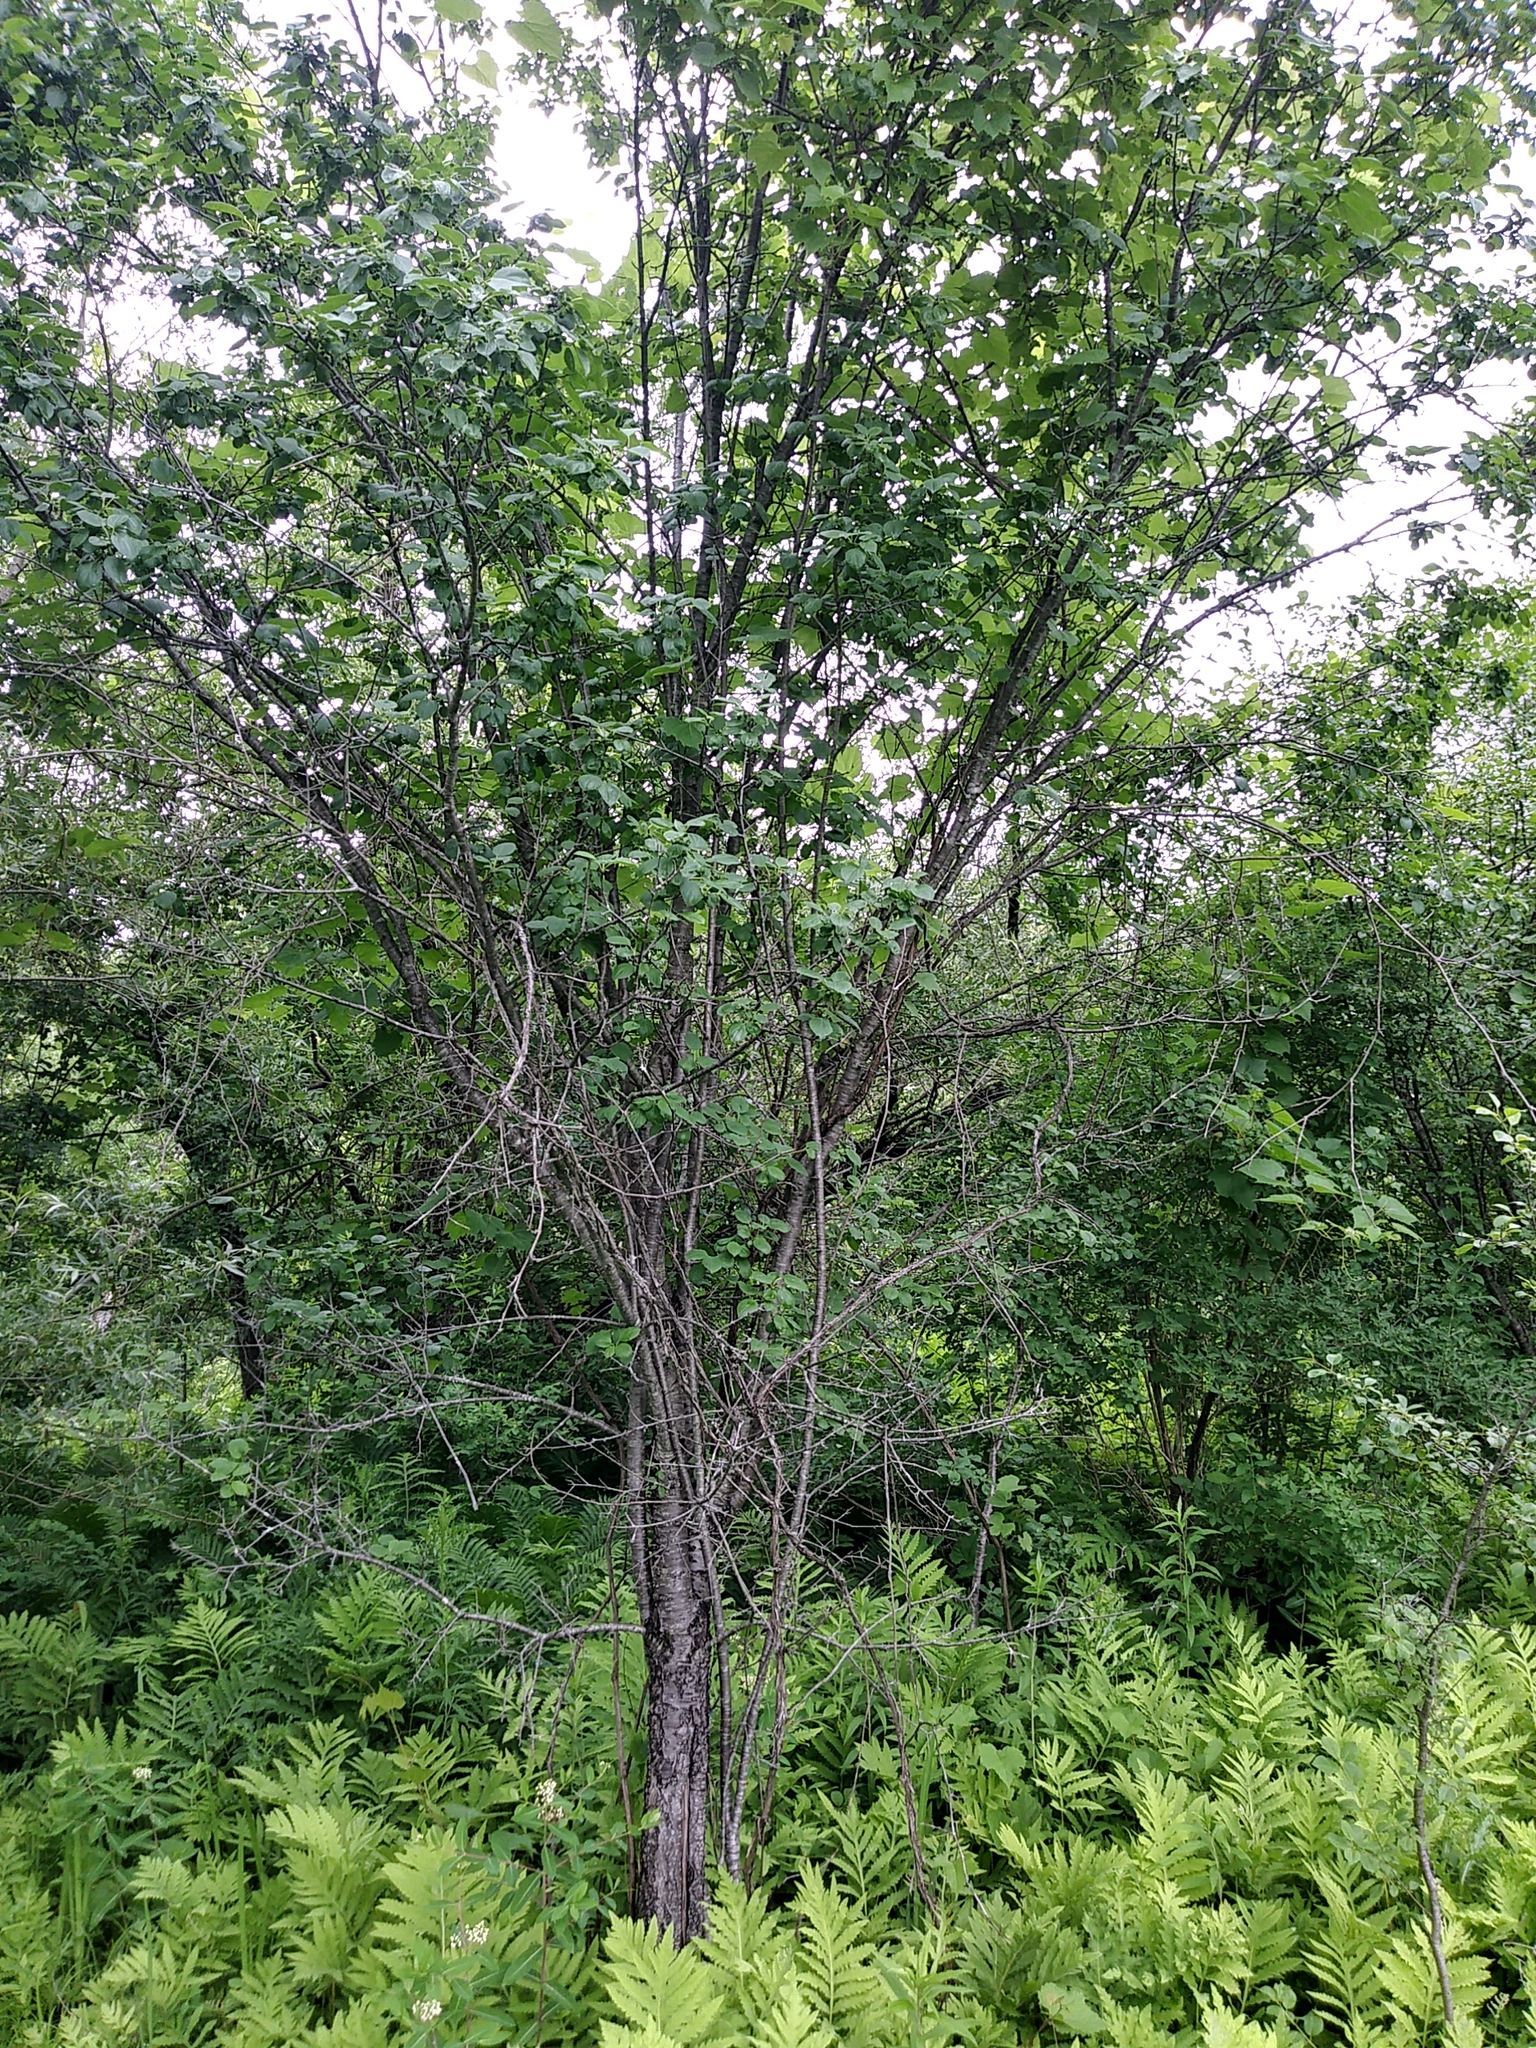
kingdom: Plantae
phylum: Tracheophyta
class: Magnoliopsida
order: Rosales
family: Rhamnaceae
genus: Rhamnus
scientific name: Rhamnus cathartica
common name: Common buckthorn
